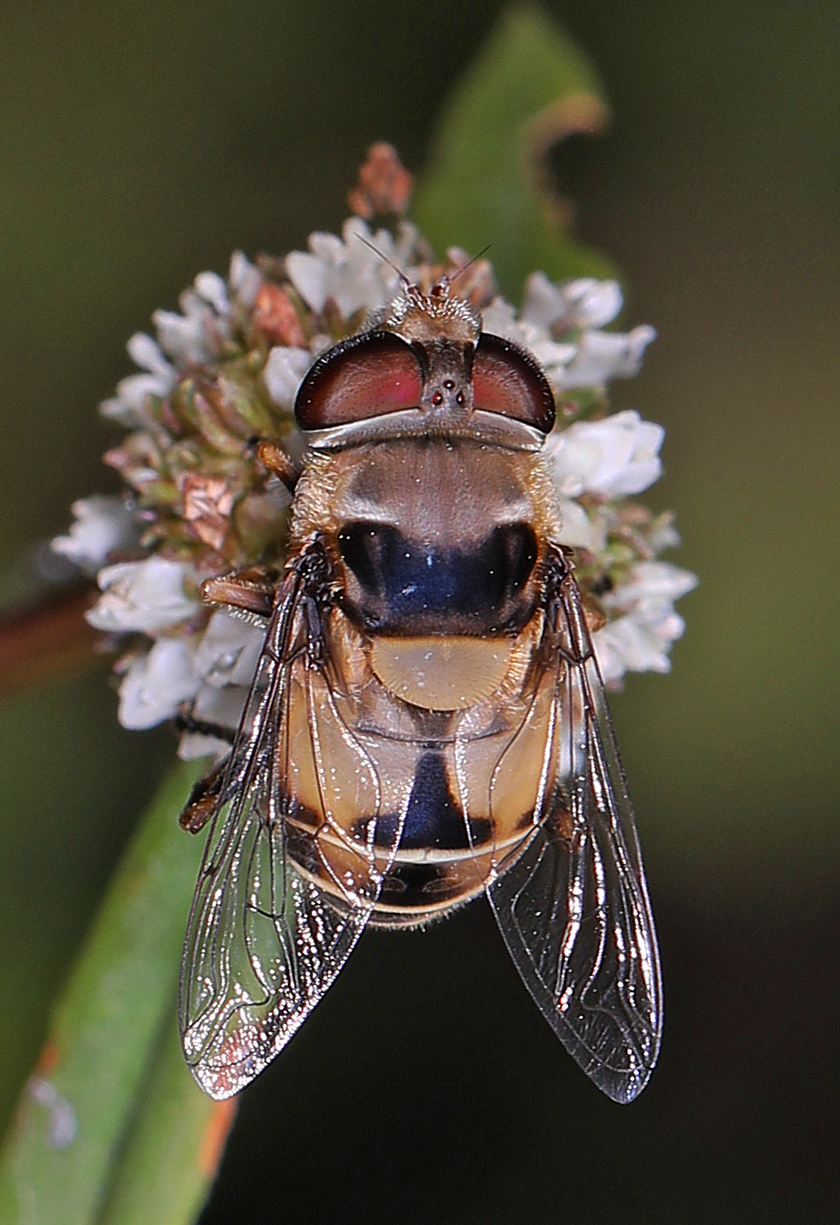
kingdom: Animalia
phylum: Arthropoda
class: Insecta
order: Diptera
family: Syrphidae
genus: Palpada
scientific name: Palpada pusilla
